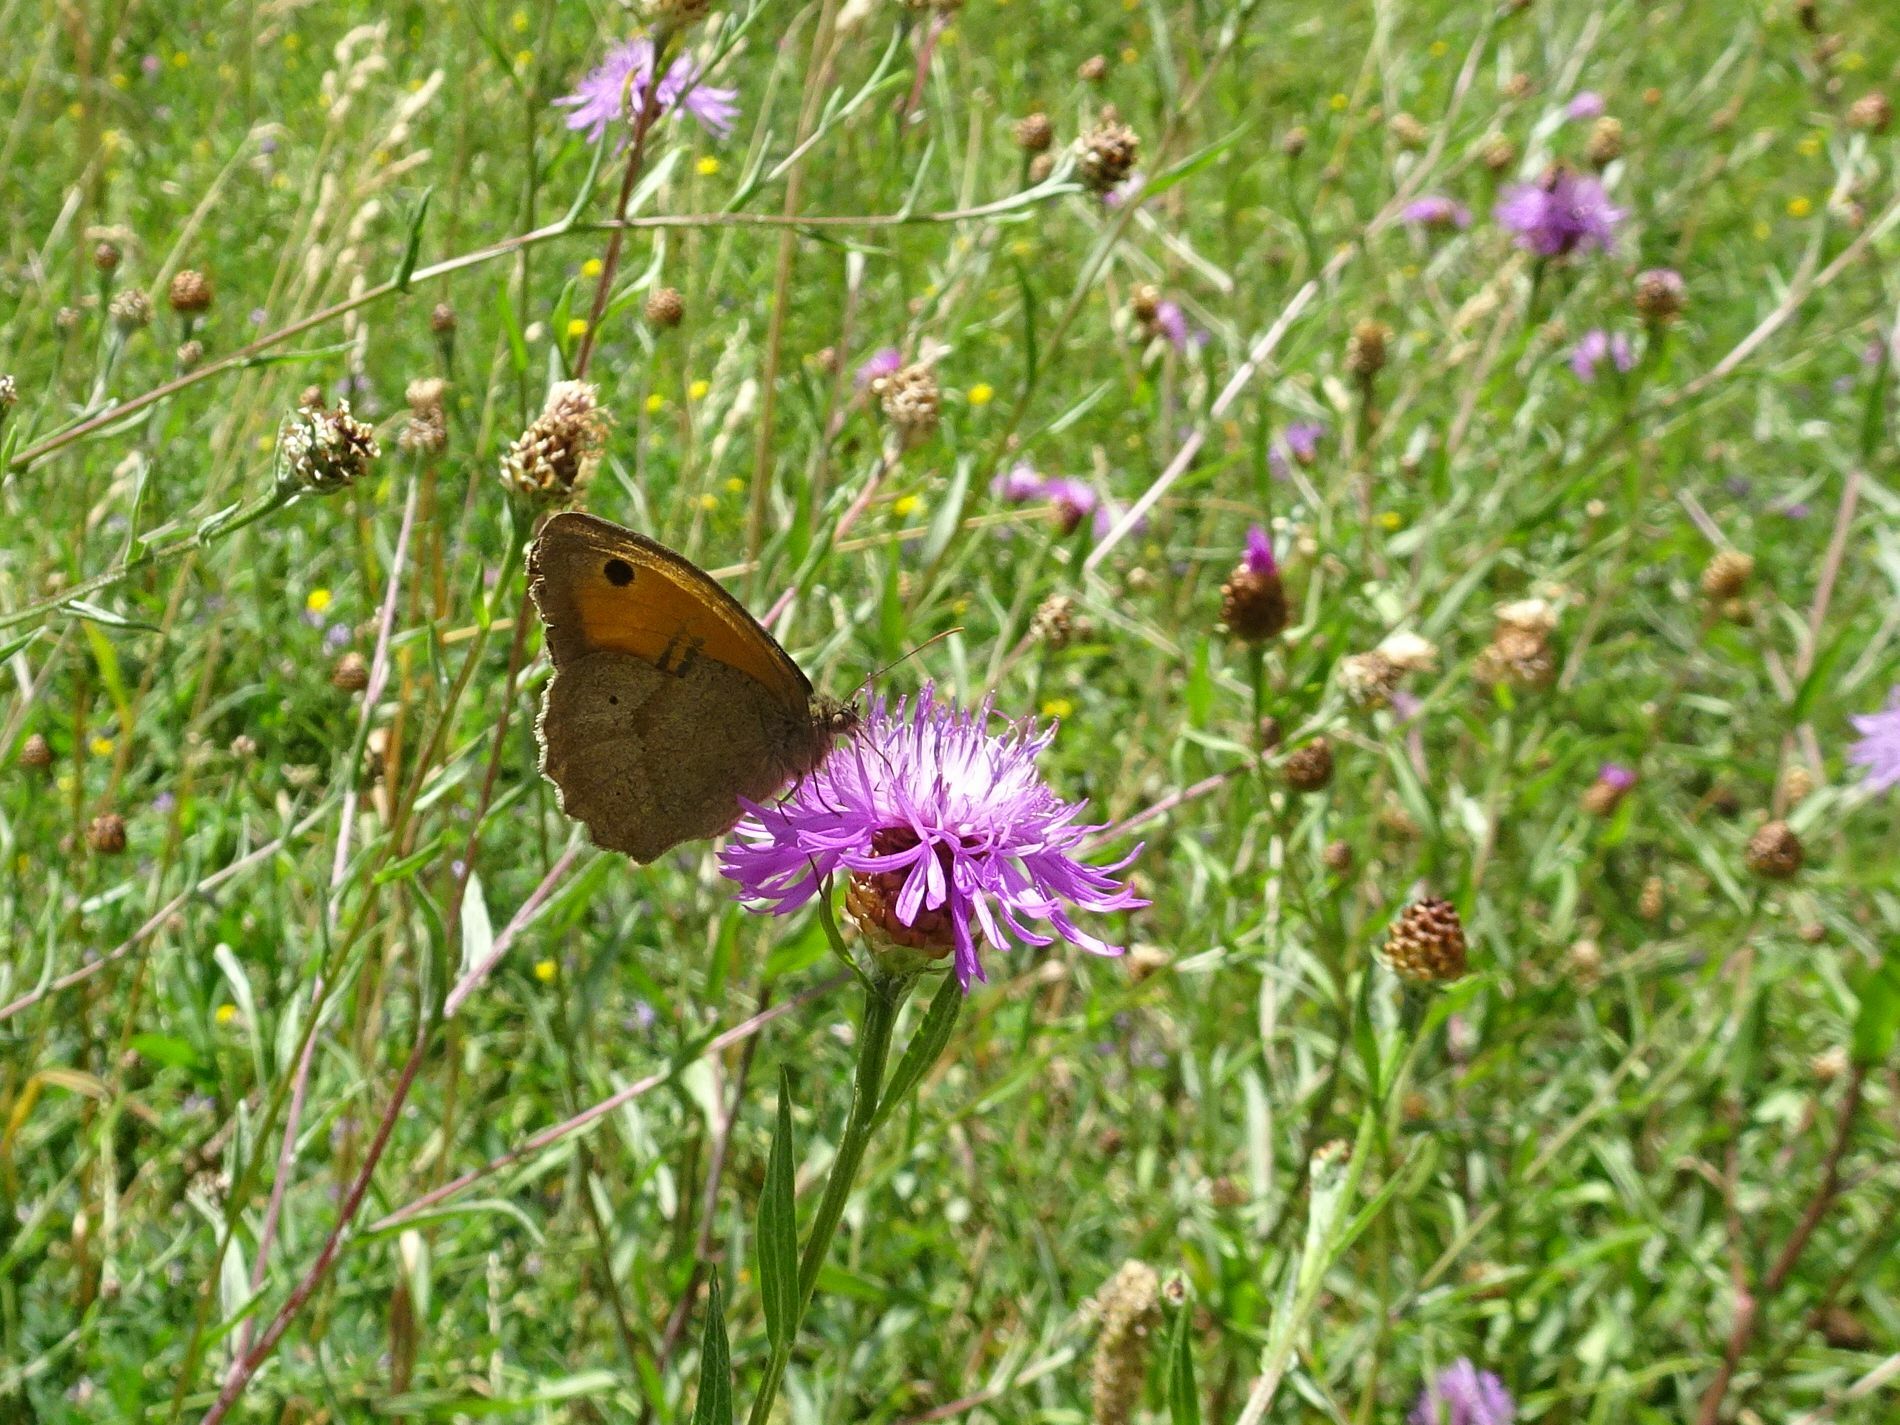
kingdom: Animalia
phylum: Arthropoda
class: Insecta
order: Lepidoptera
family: Nymphalidae
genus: Maniola
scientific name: Maniola jurtina
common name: Meadow brown
